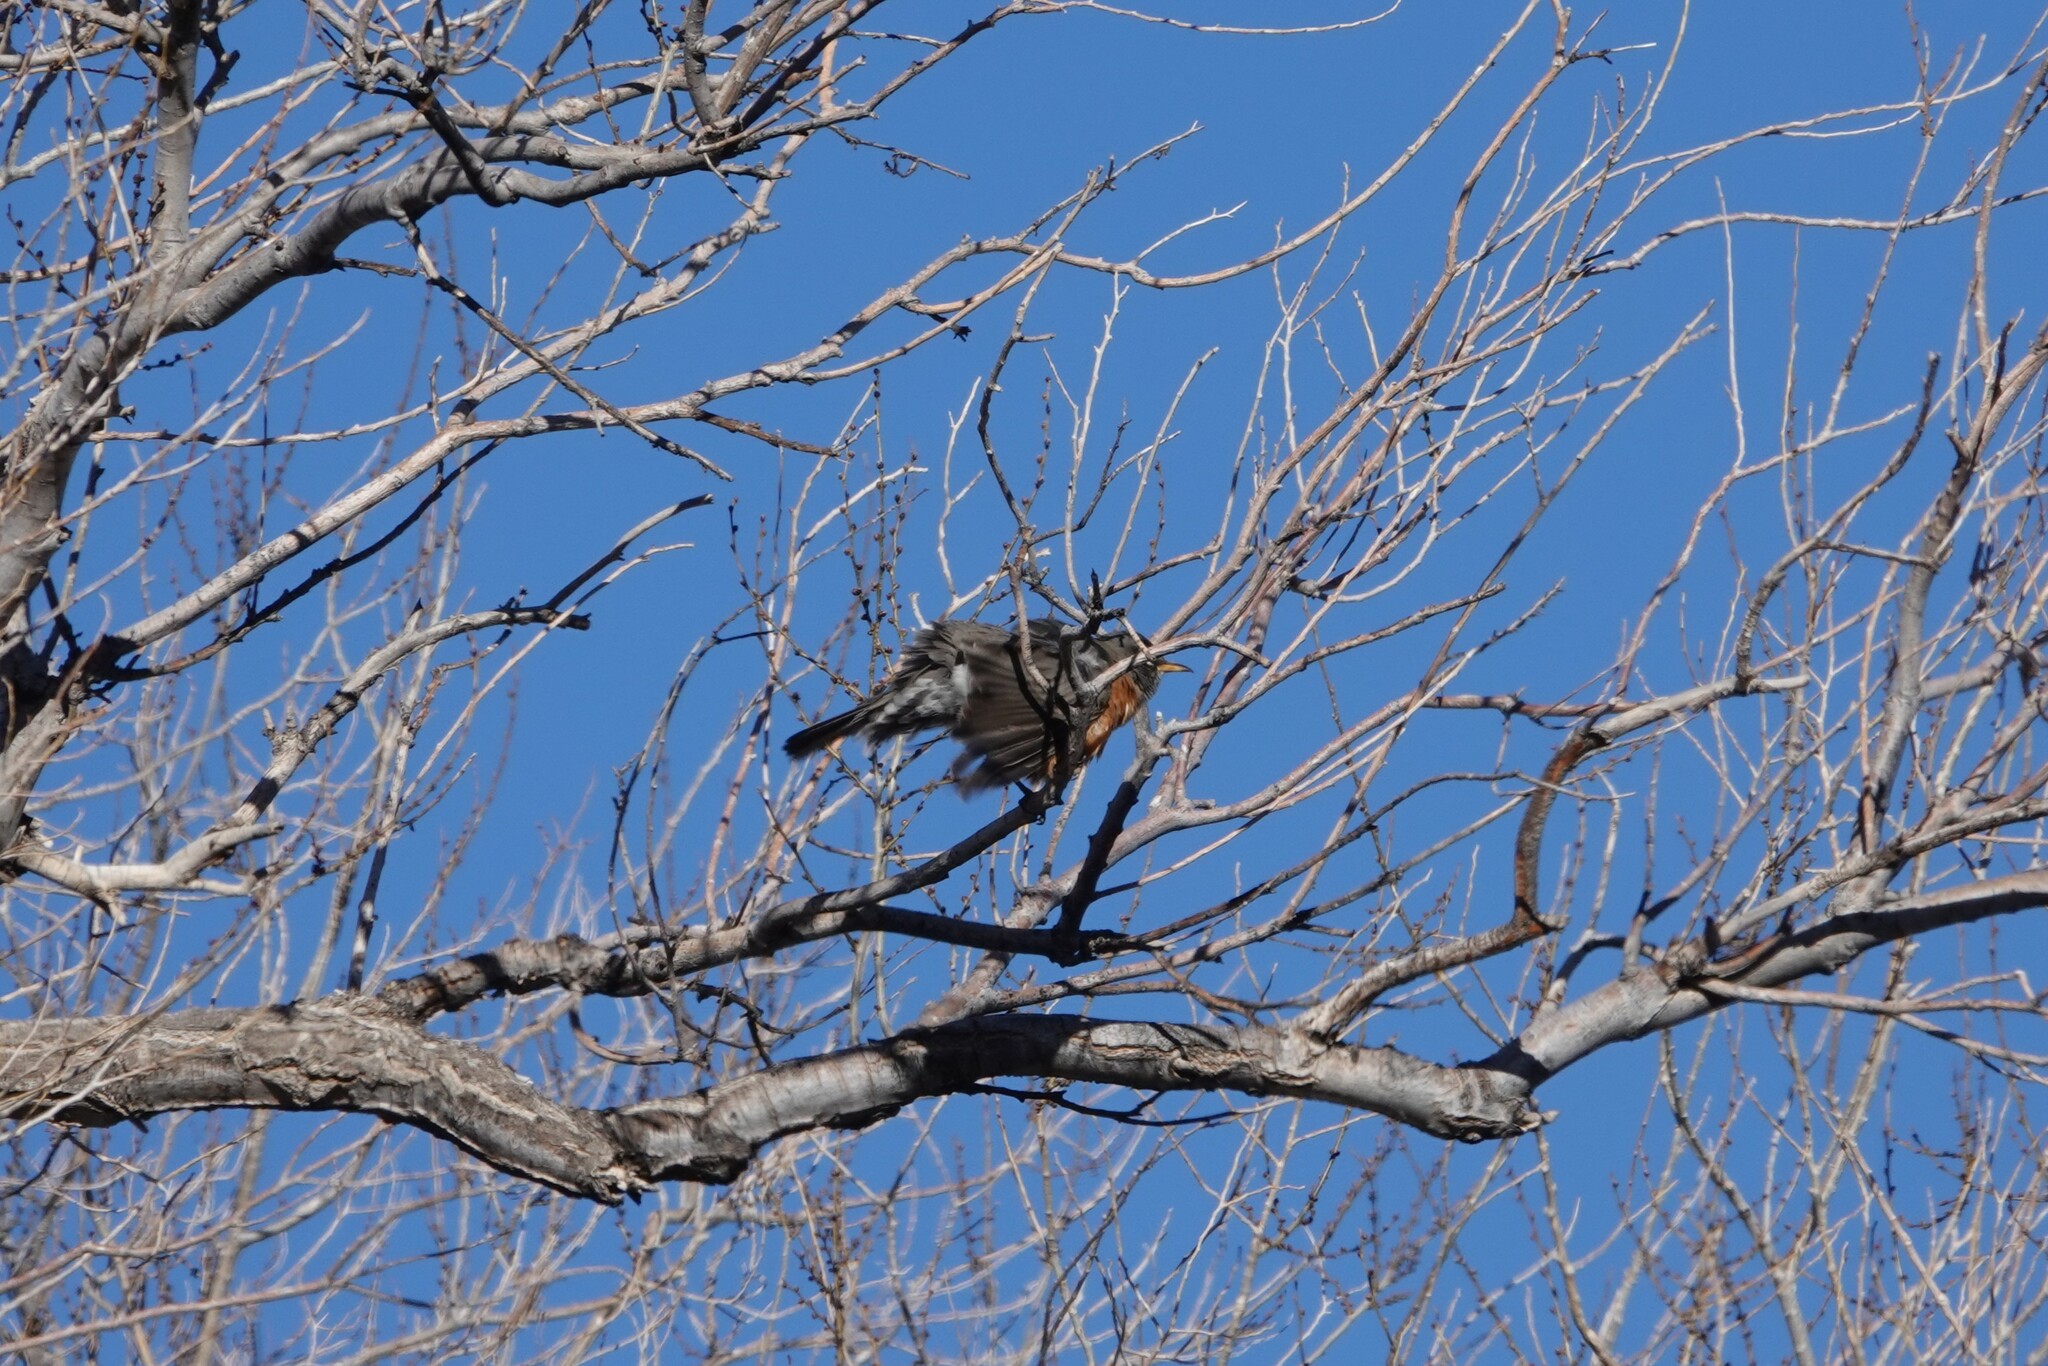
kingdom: Animalia
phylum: Chordata
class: Aves
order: Passeriformes
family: Turdidae
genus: Turdus
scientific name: Turdus migratorius
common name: American robin
